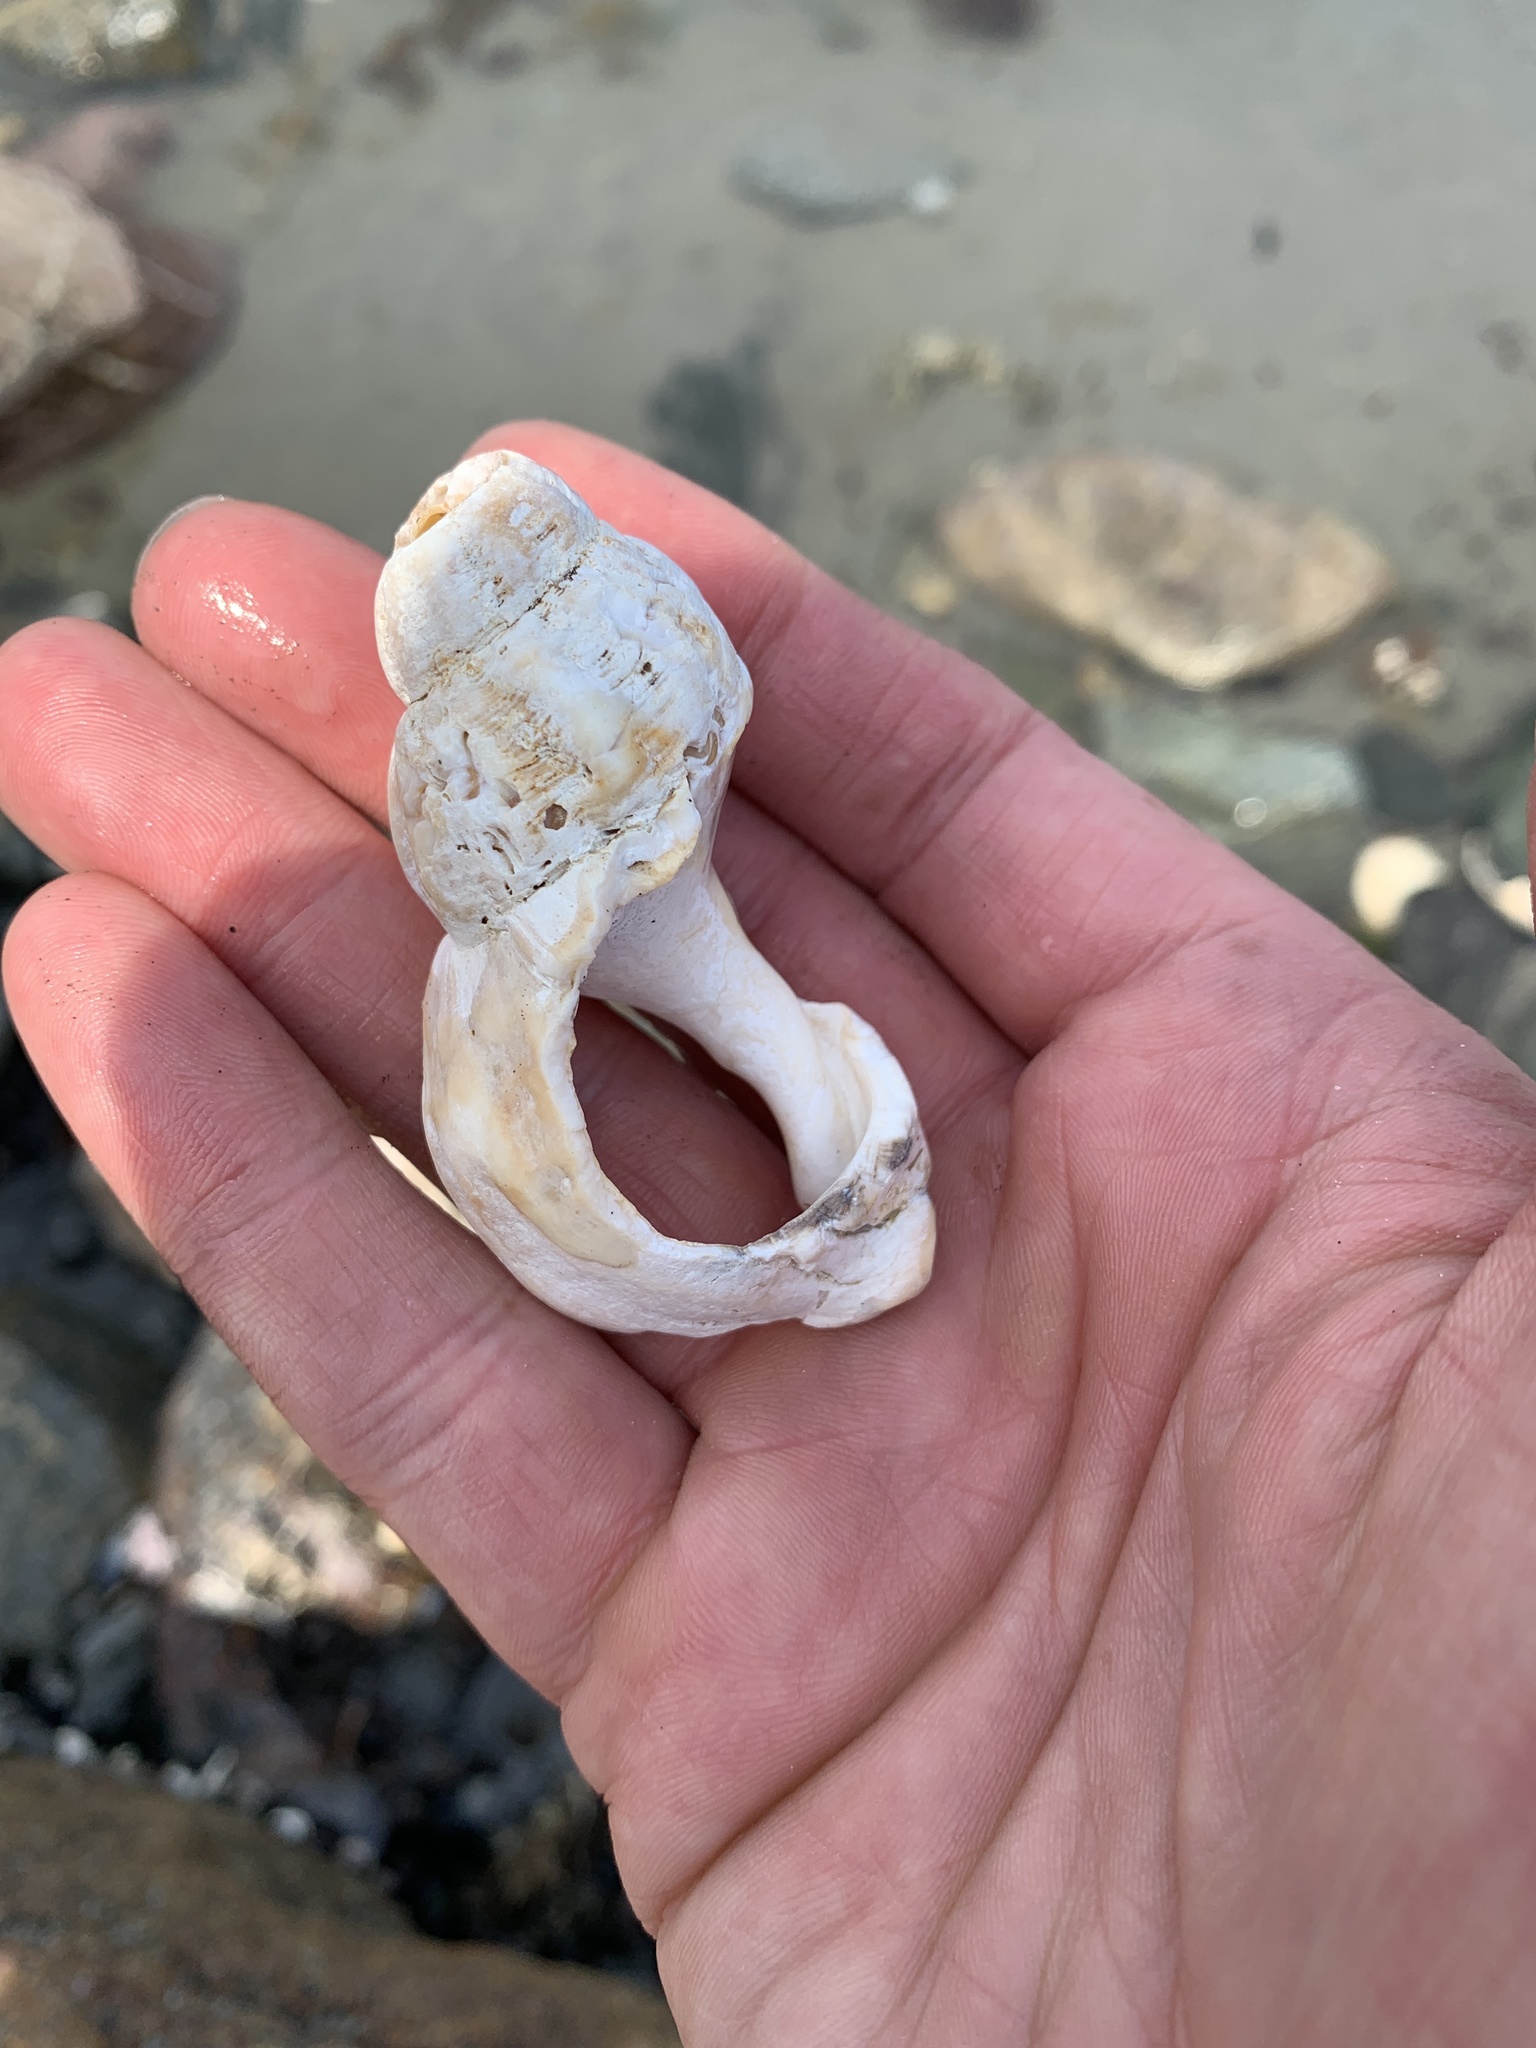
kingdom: Animalia
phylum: Mollusca
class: Gastropoda
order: Neogastropoda
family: Buccinidae
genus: Buccinum
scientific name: Buccinum undatum
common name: Common whelk
